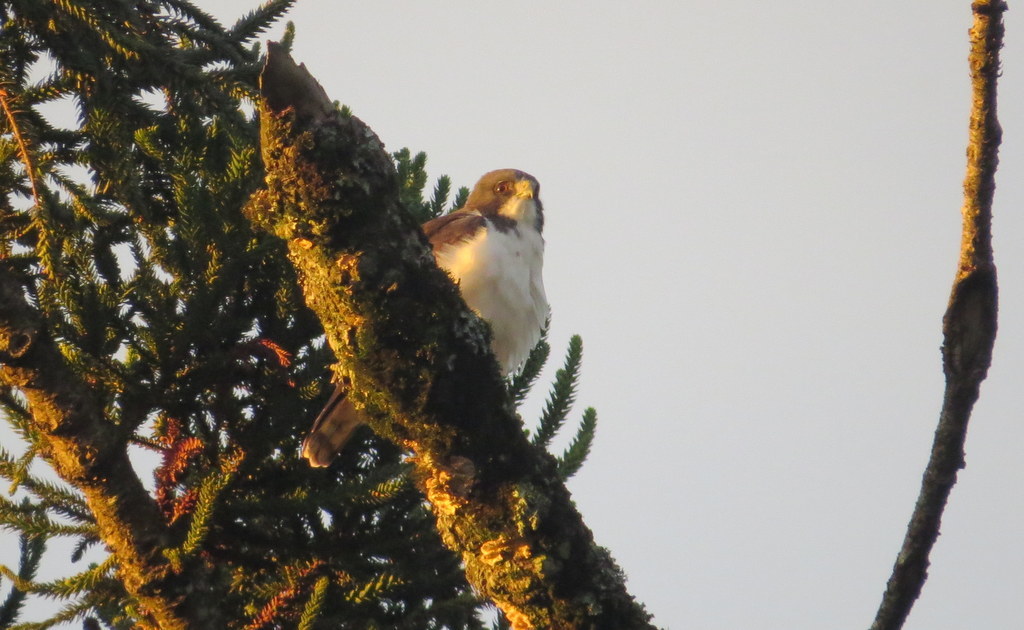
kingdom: Animalia
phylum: Chordata
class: Aves
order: Accipitriformes
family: Accipitridae
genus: Buteo
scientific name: Buteo brachyurus
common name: Short-tailed hawk
